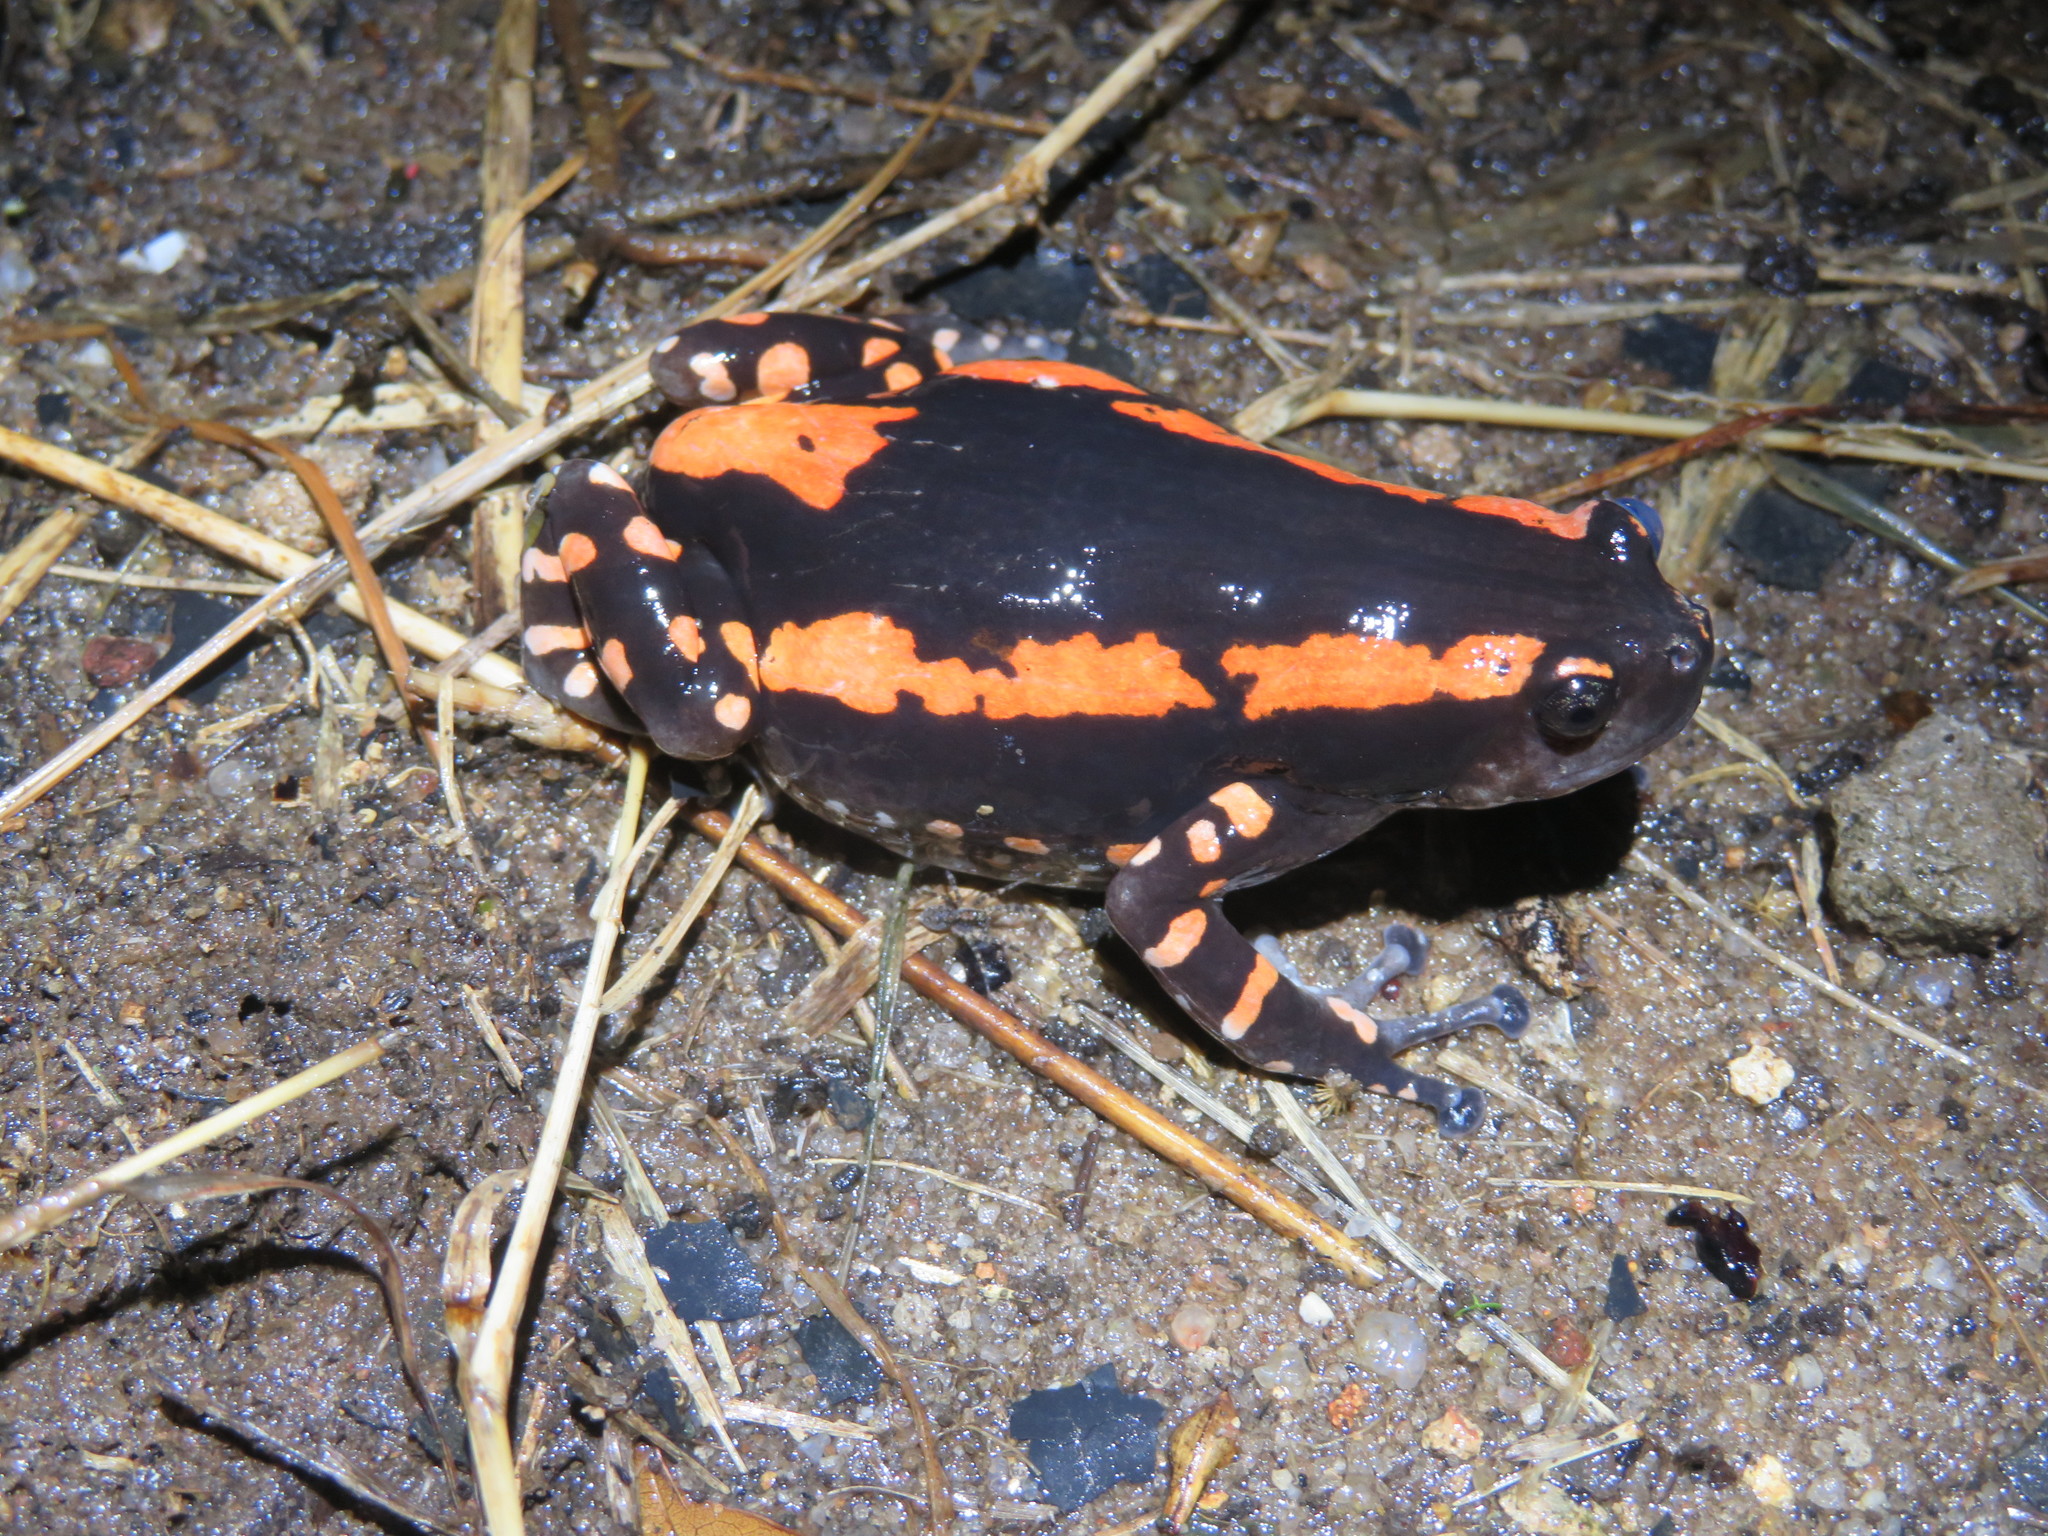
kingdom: Animalia
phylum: Chordata
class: Amphibia
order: Anura
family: Microhylidae
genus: Phrynomantis
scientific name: Phrynomantis bifasciatus
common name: Banded rubber frog
